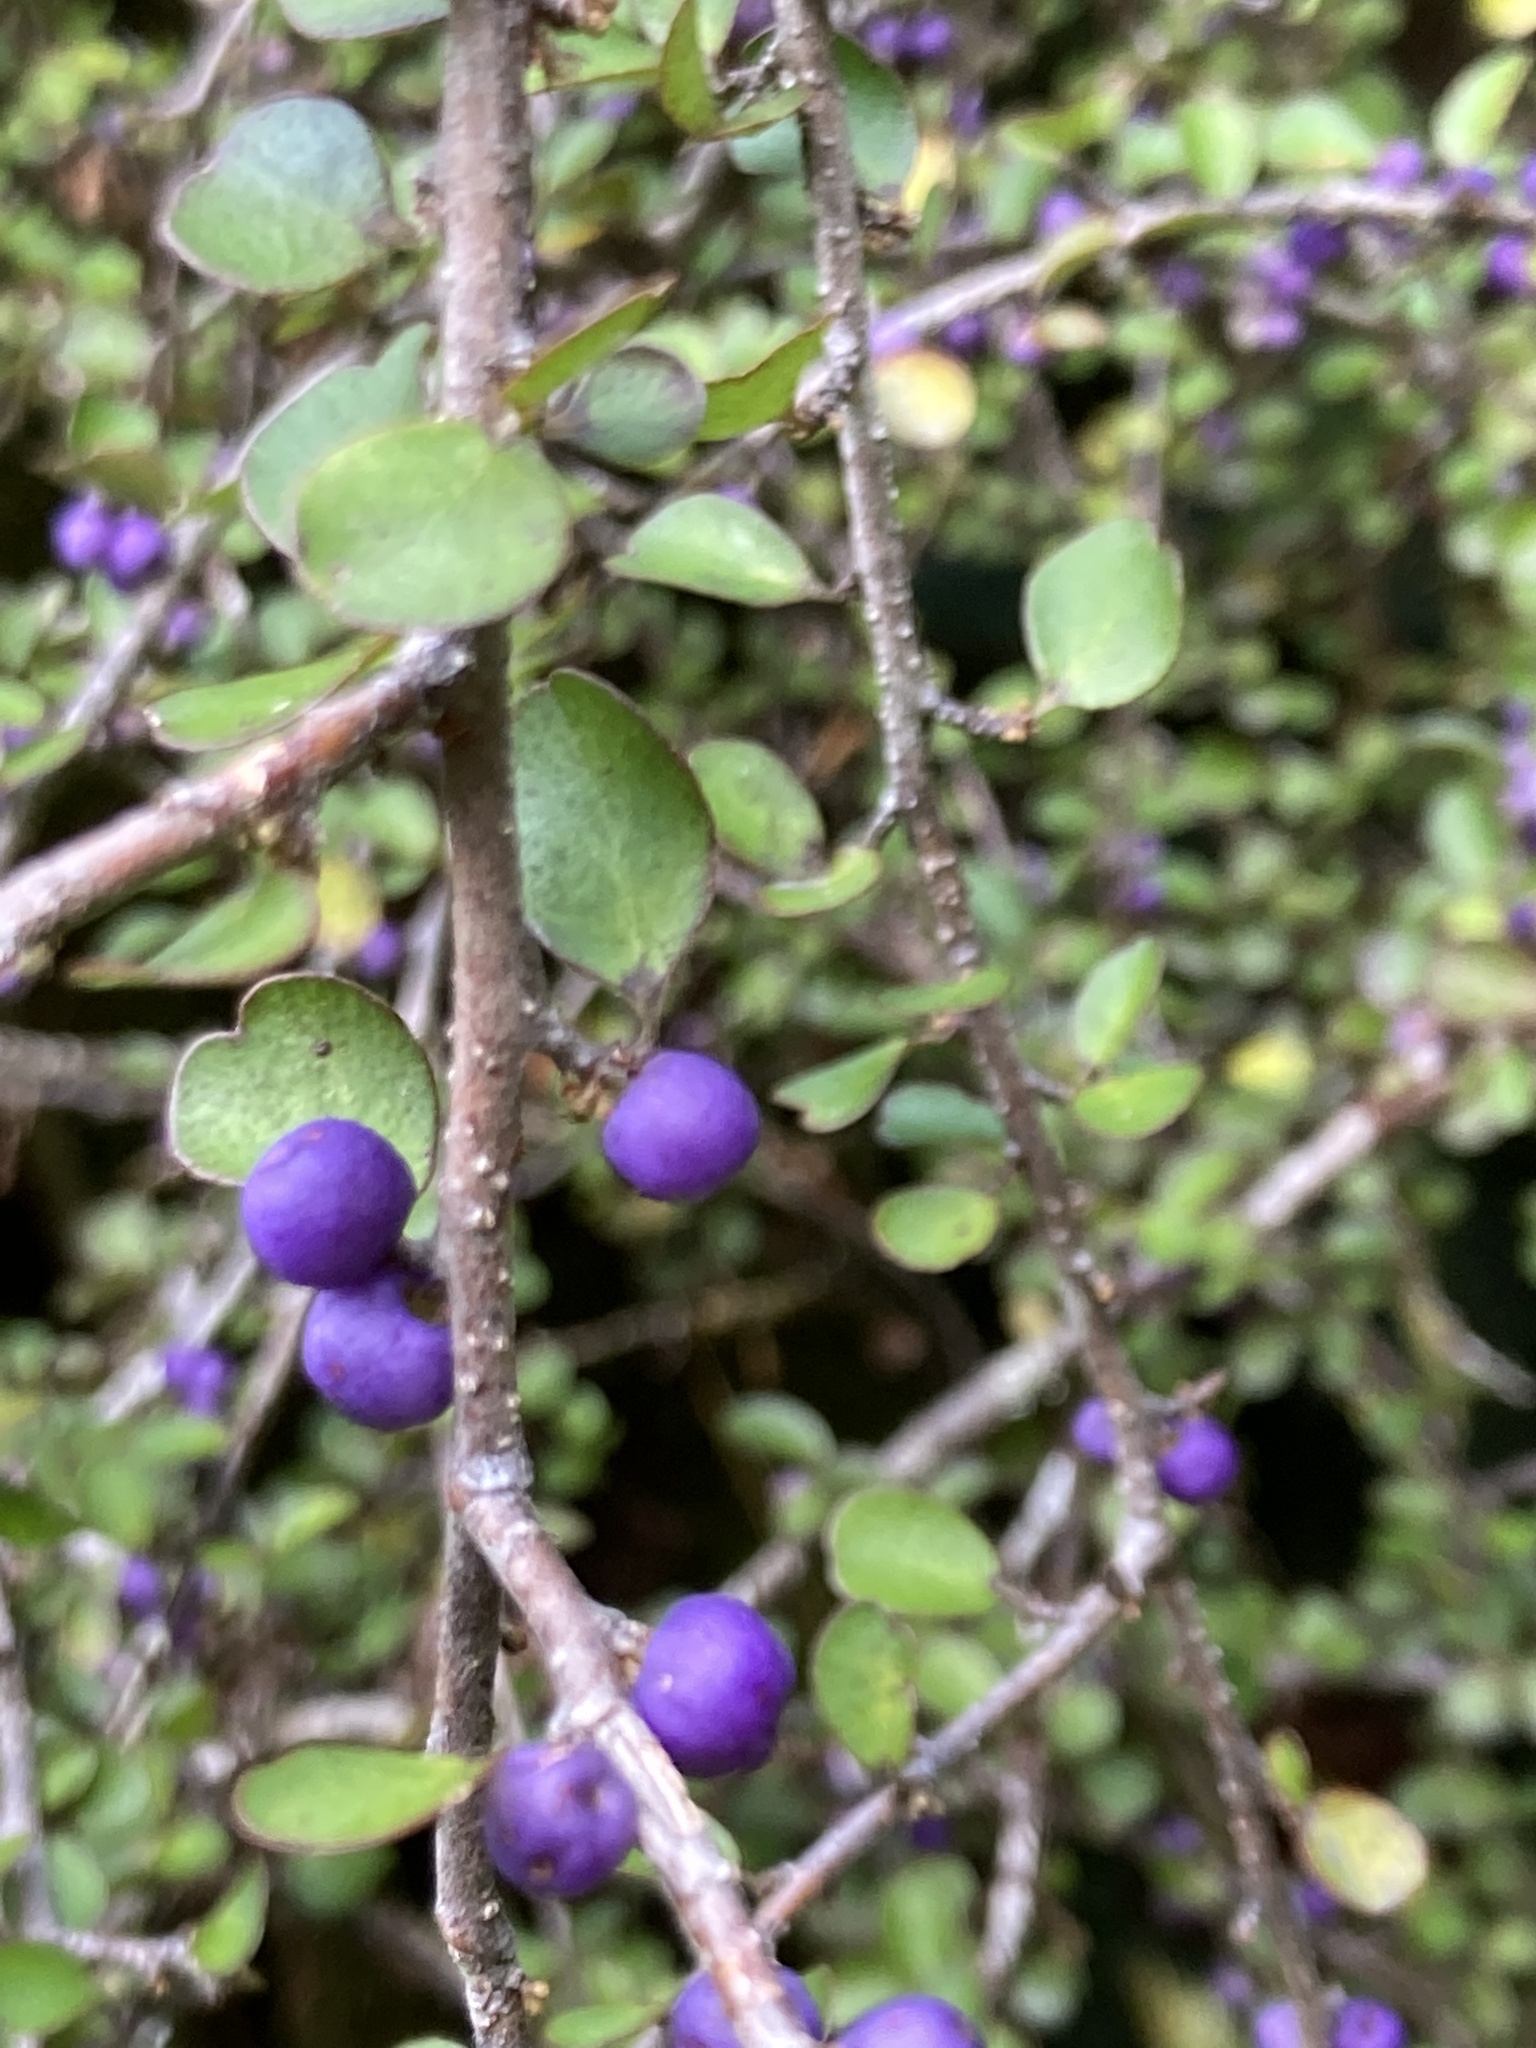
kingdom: Plantae
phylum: Tracheophyta
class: Magnoliopsida
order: Ericales
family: Primulaceae
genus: Myrsine
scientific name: Myrsine divaricata
